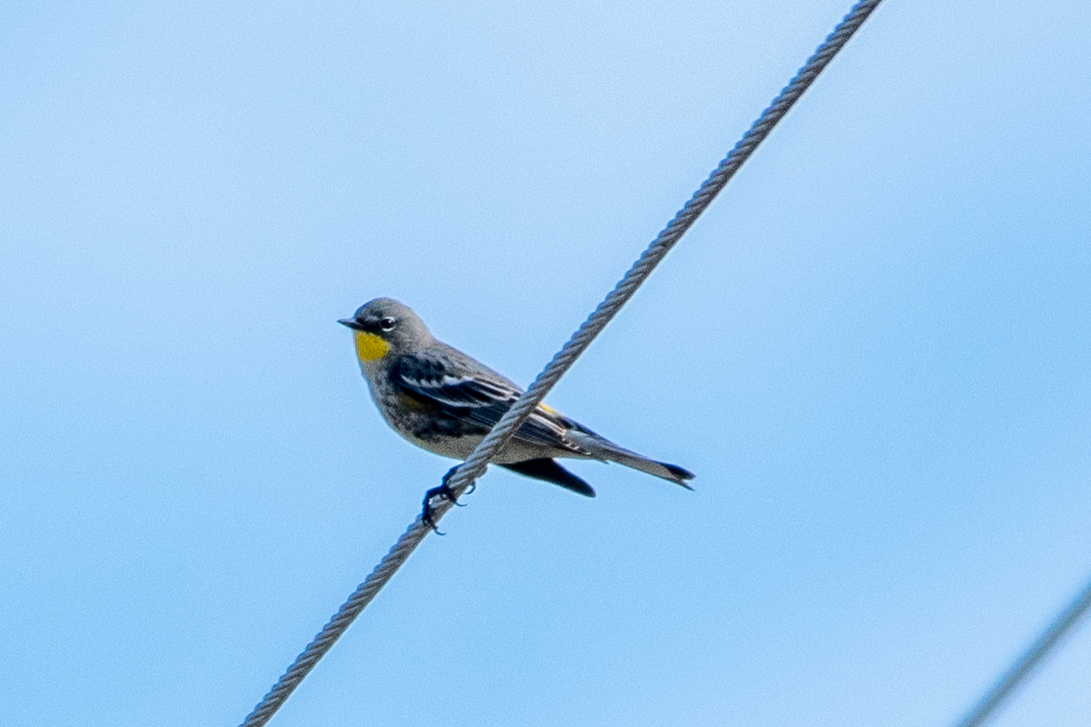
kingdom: Animalia
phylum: Chordata
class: Aves
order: Passeriformes
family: Parulidae
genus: Setophaga
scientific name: Setophaga coronata
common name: Myrtle warbler
